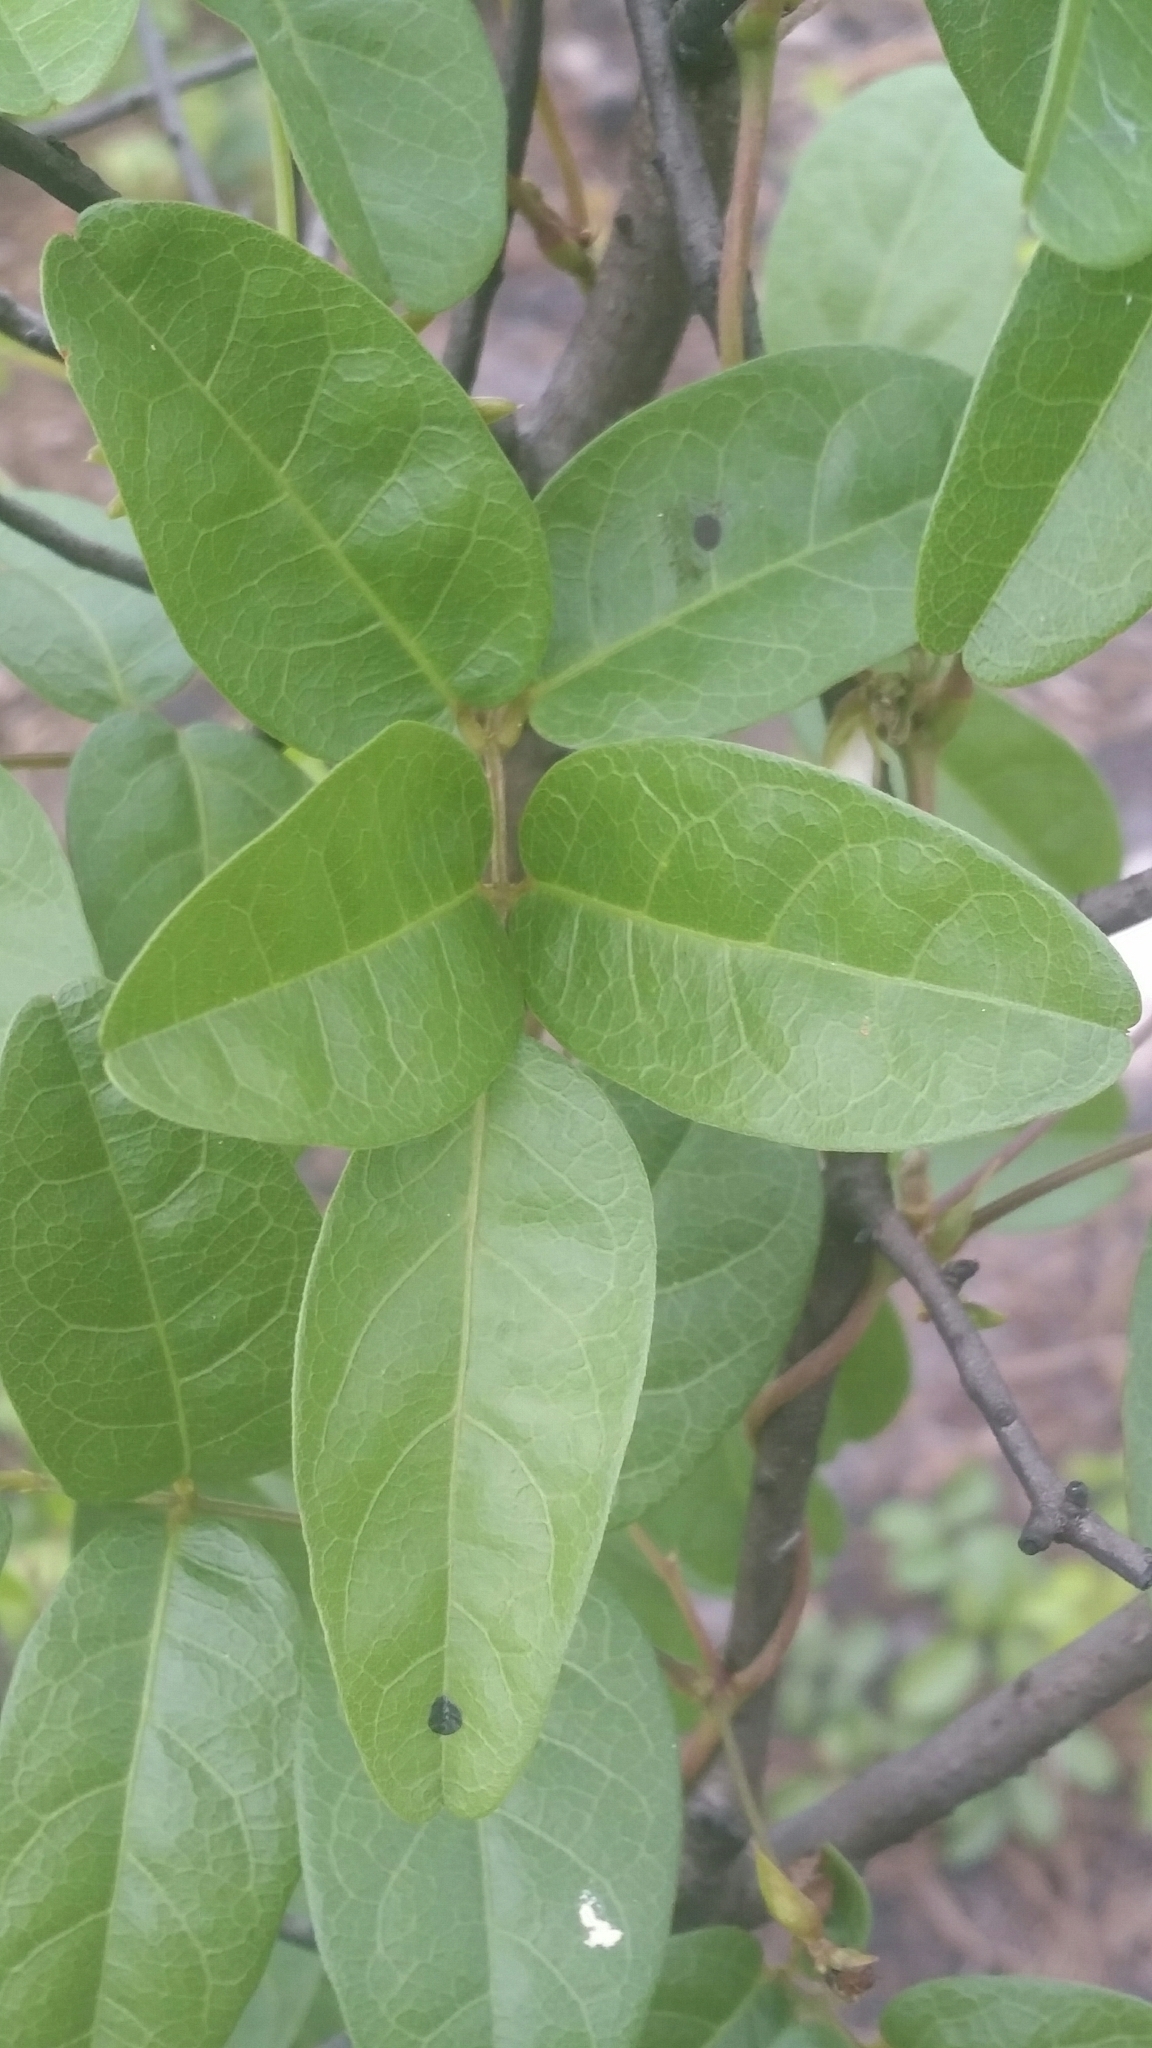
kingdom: Plantae
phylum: Tracheophyta
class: Magnoliopsida
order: Fabales
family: Fabaceae
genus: Galactia
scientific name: Galactia elliottii
